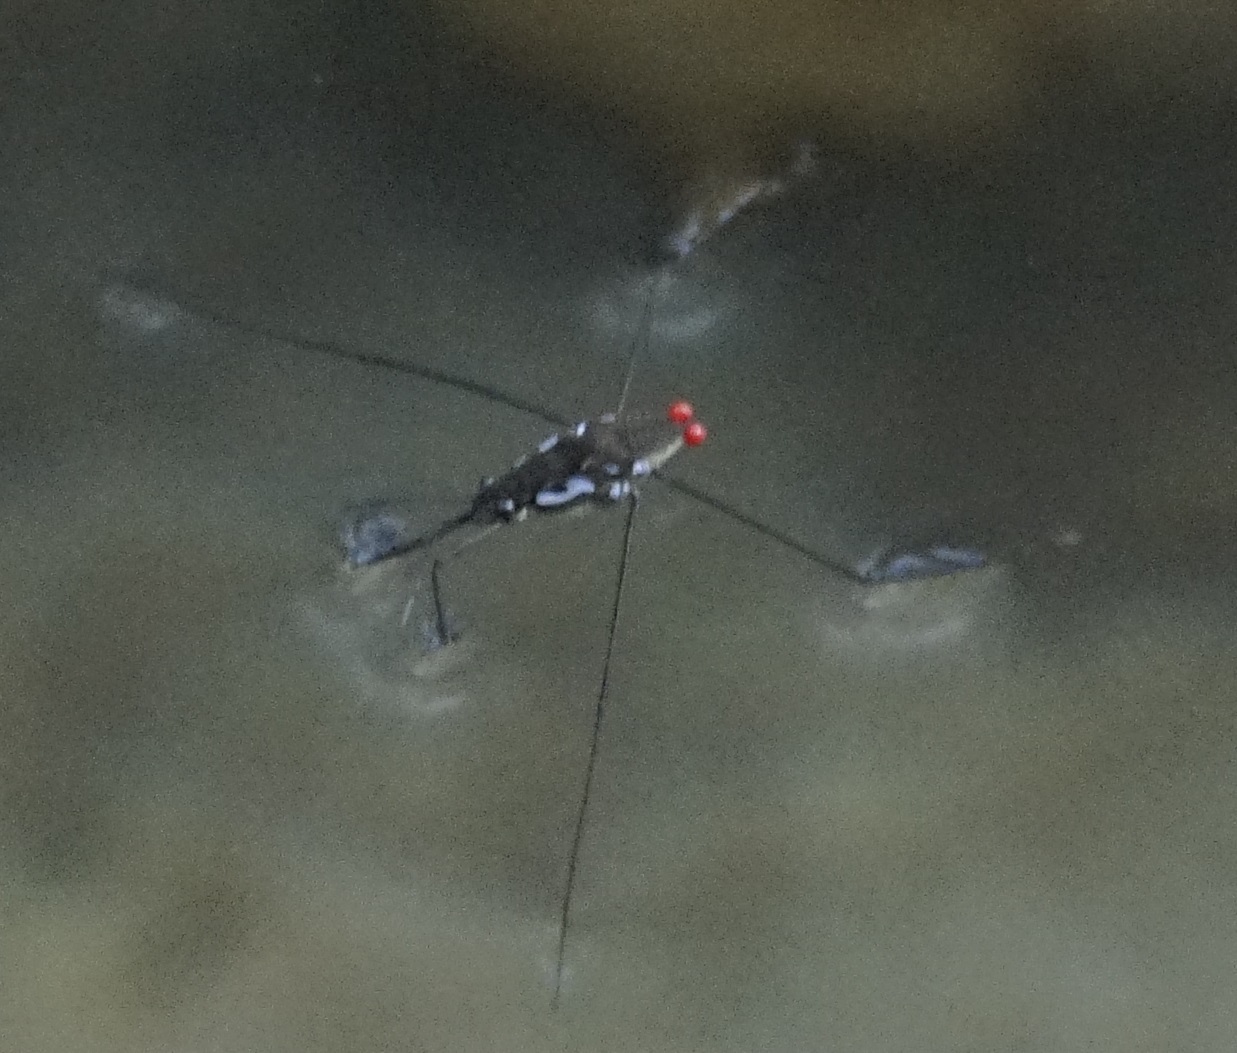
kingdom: Animalia
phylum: Arthropoda
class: Insecta
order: Hemiptera
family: Gerridae
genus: Tenagogerris
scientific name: Tenagogerris euphrosyne
